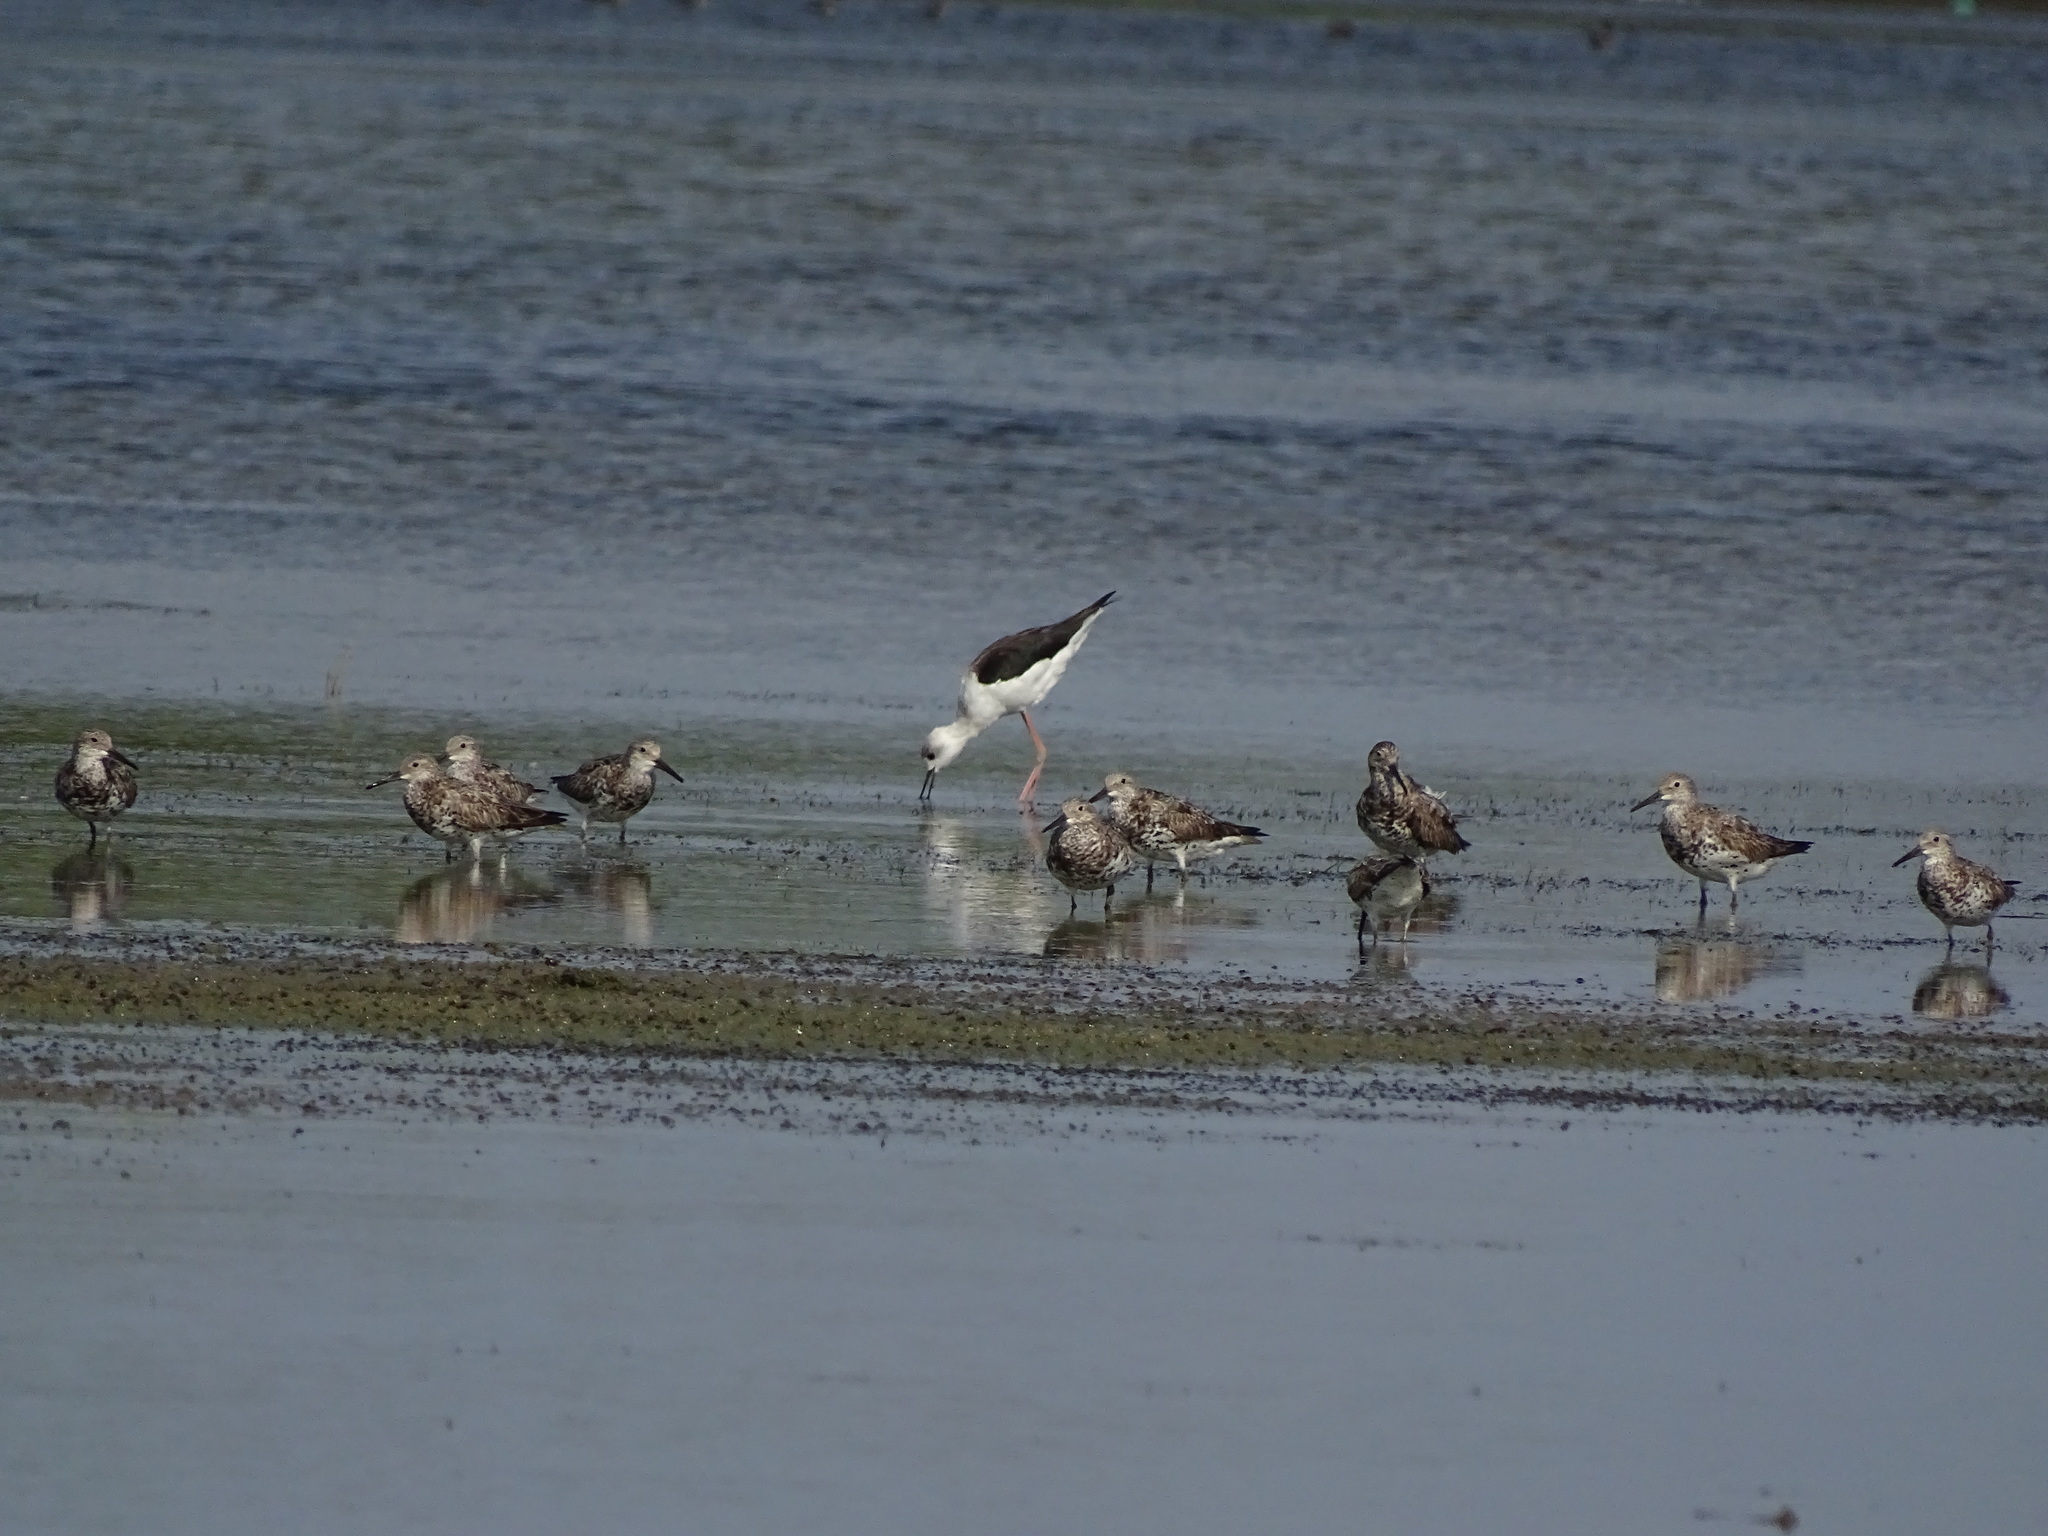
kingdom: Animalia
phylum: Chordata
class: Aves
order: Charadriiformes
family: Scolopacidae
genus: Calidris
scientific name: Calidris tenuirostris
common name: Great knot
